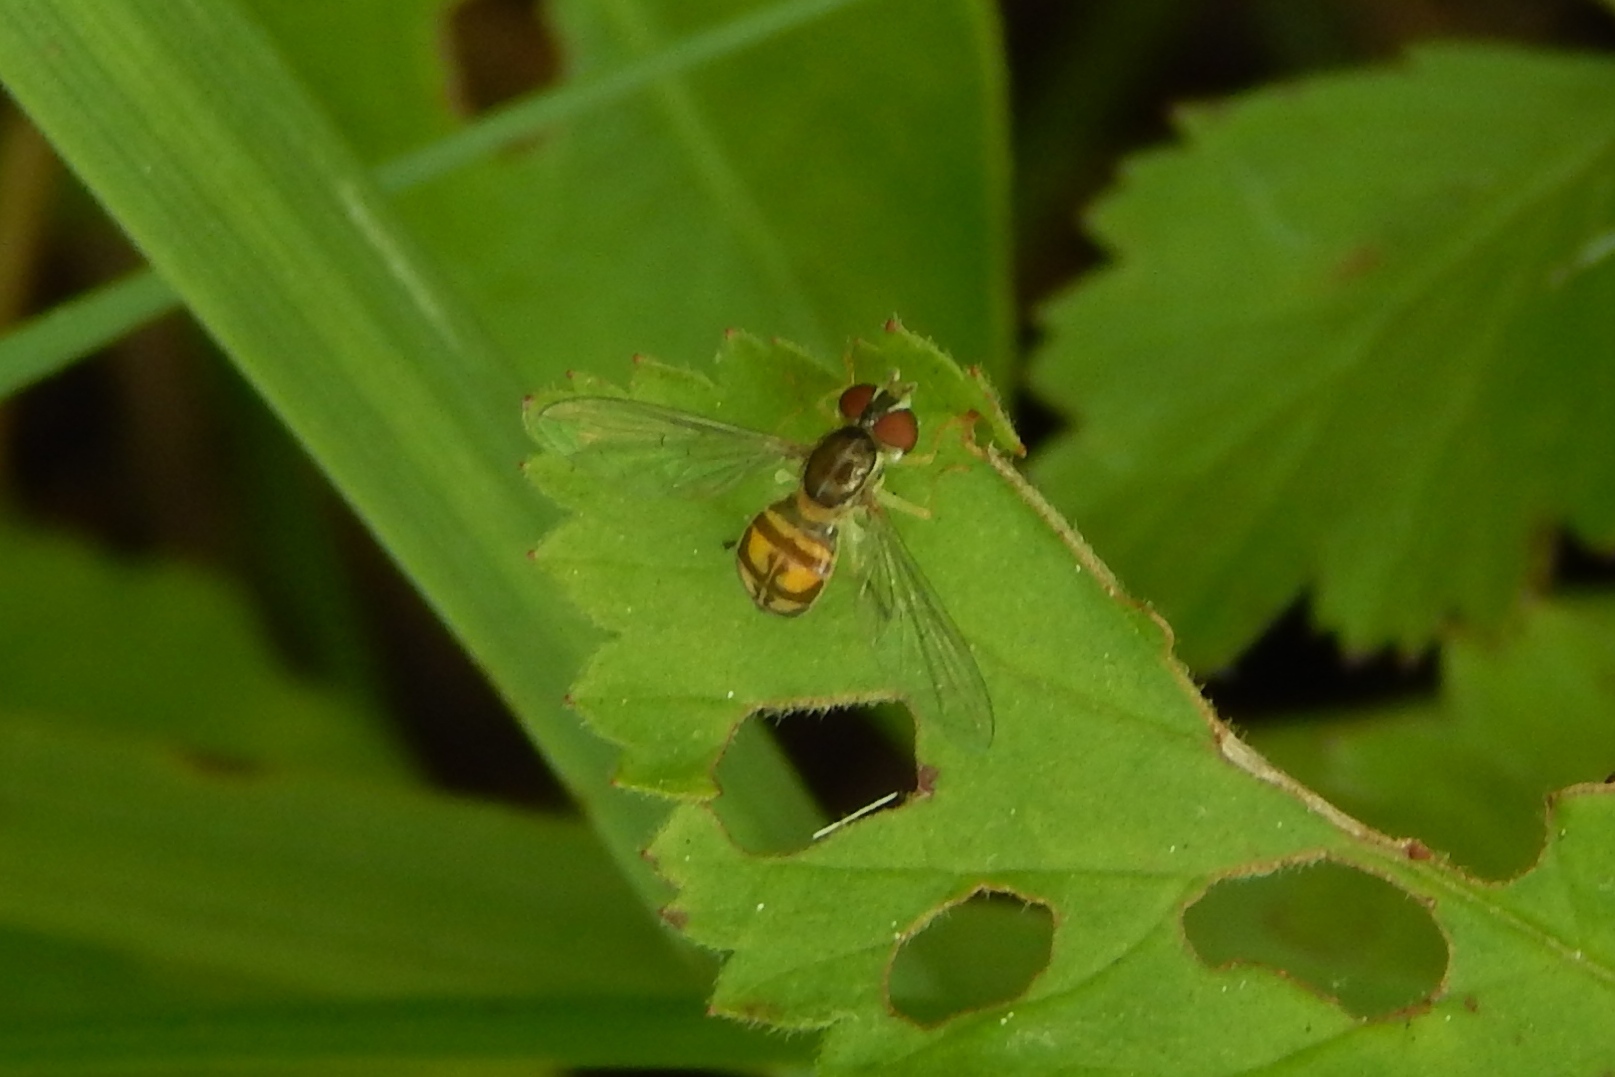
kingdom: Animalia
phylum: Arthropoda
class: Insecta
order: Diptera
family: Syrphidae
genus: Toxomerus
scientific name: Toxomerus marginatus
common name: Syrphid fly
